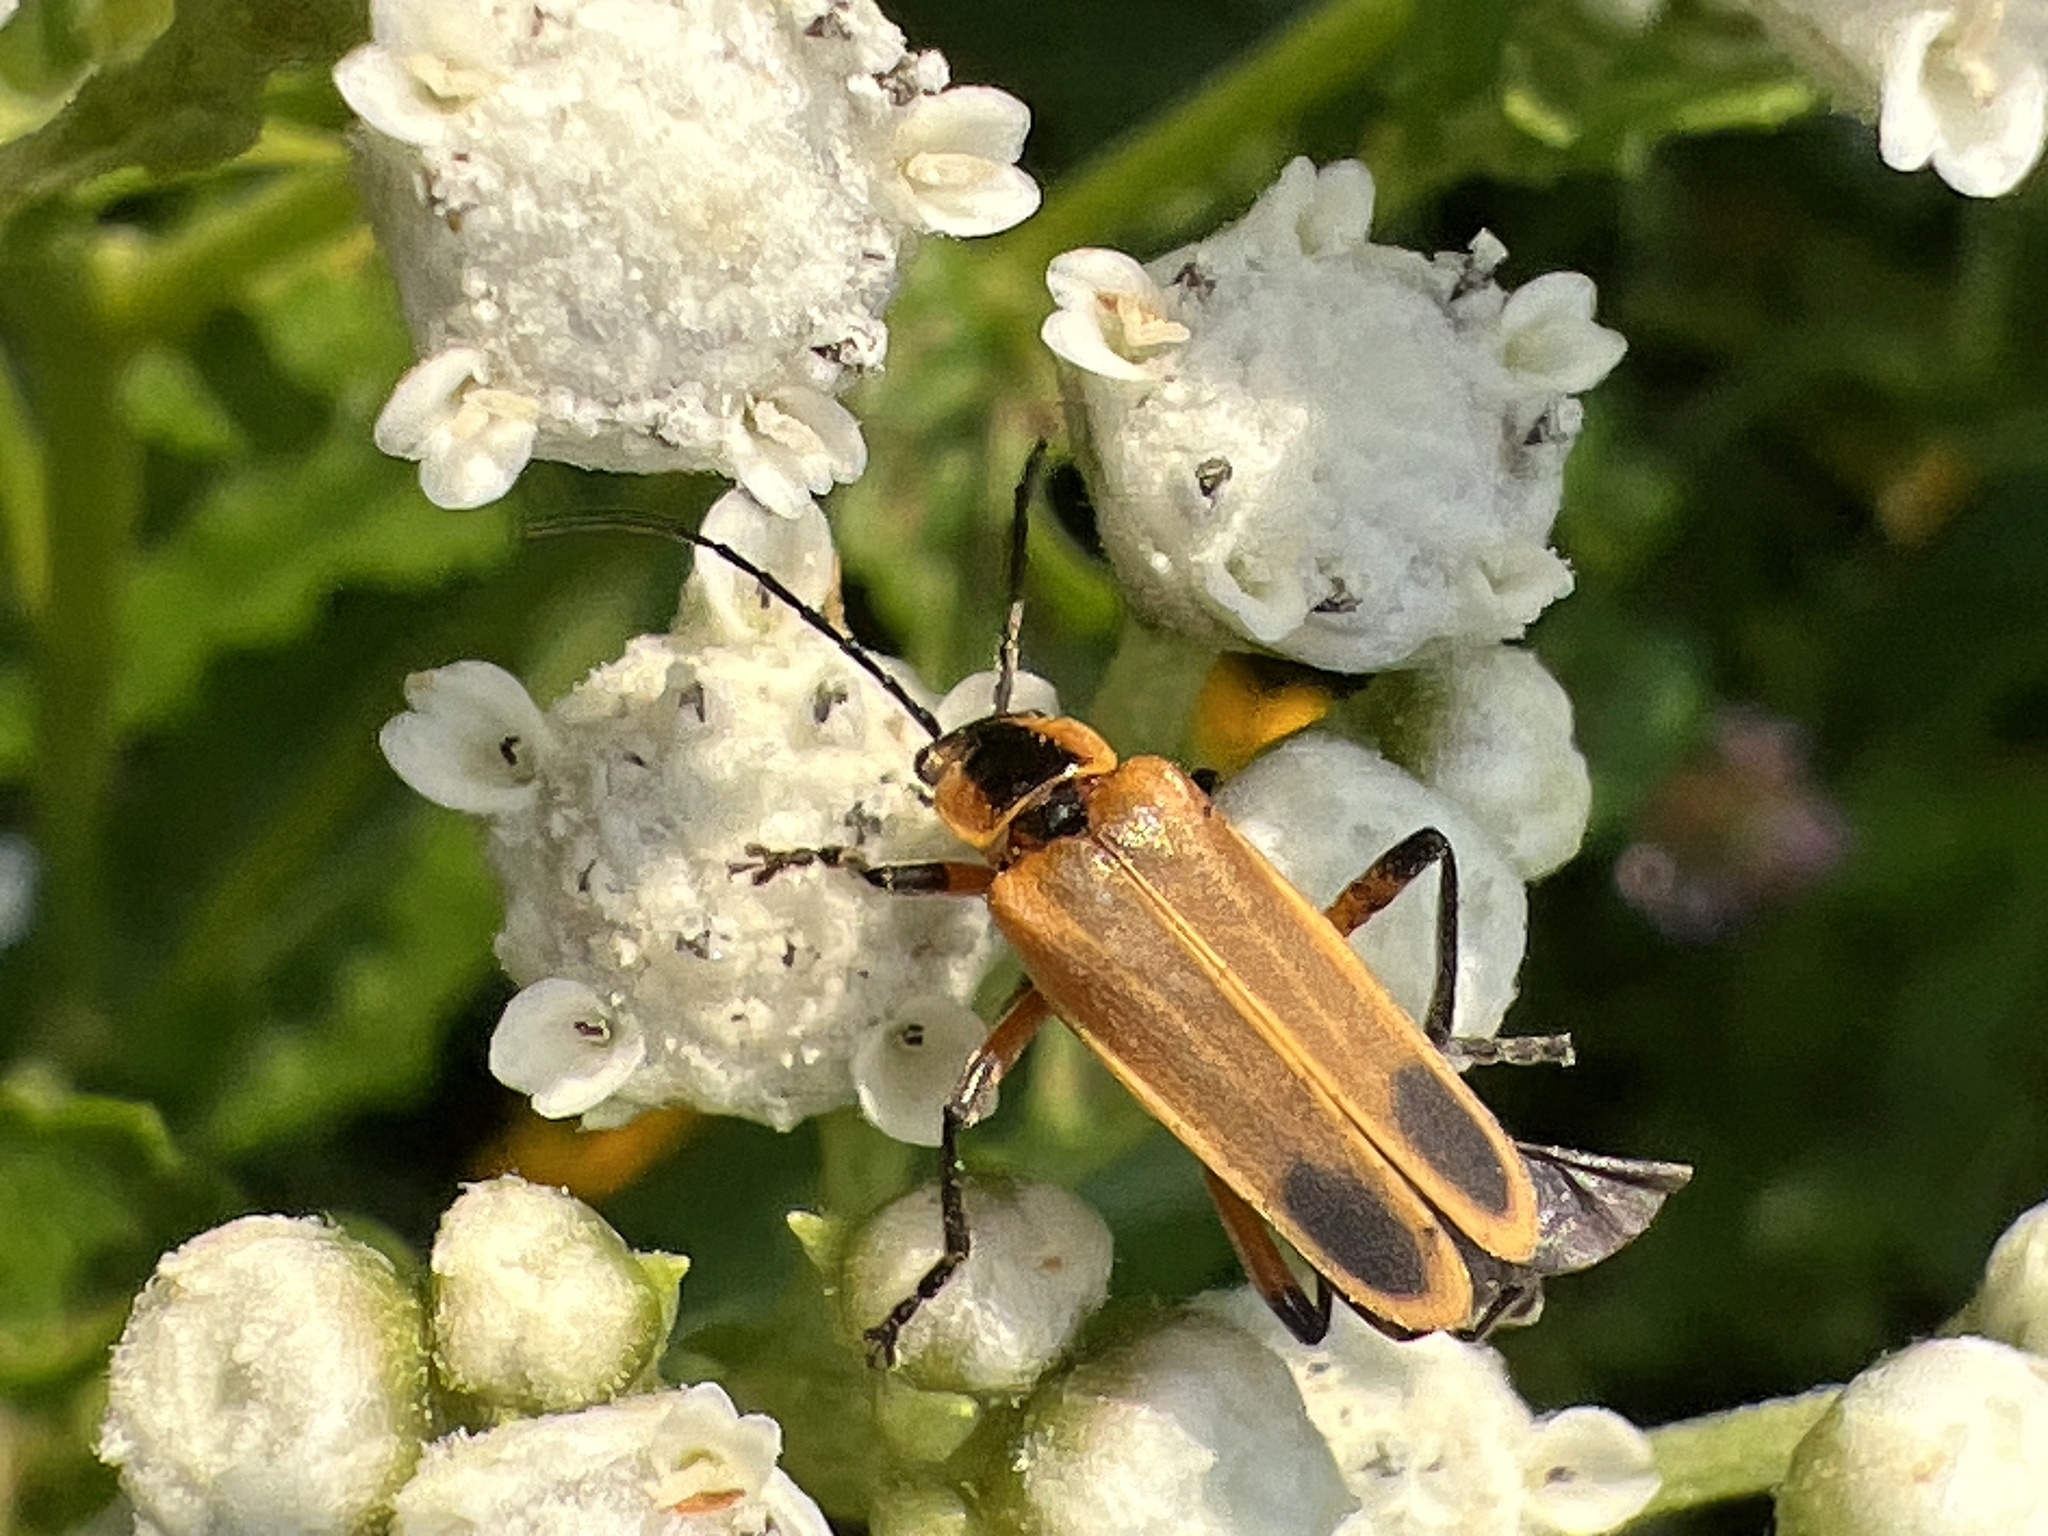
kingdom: Animalia
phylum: Arthropoda
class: Insecta
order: Coleoptera
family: Cantharidae
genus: Chauliognathus
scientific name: Chauliognathus marginatus
